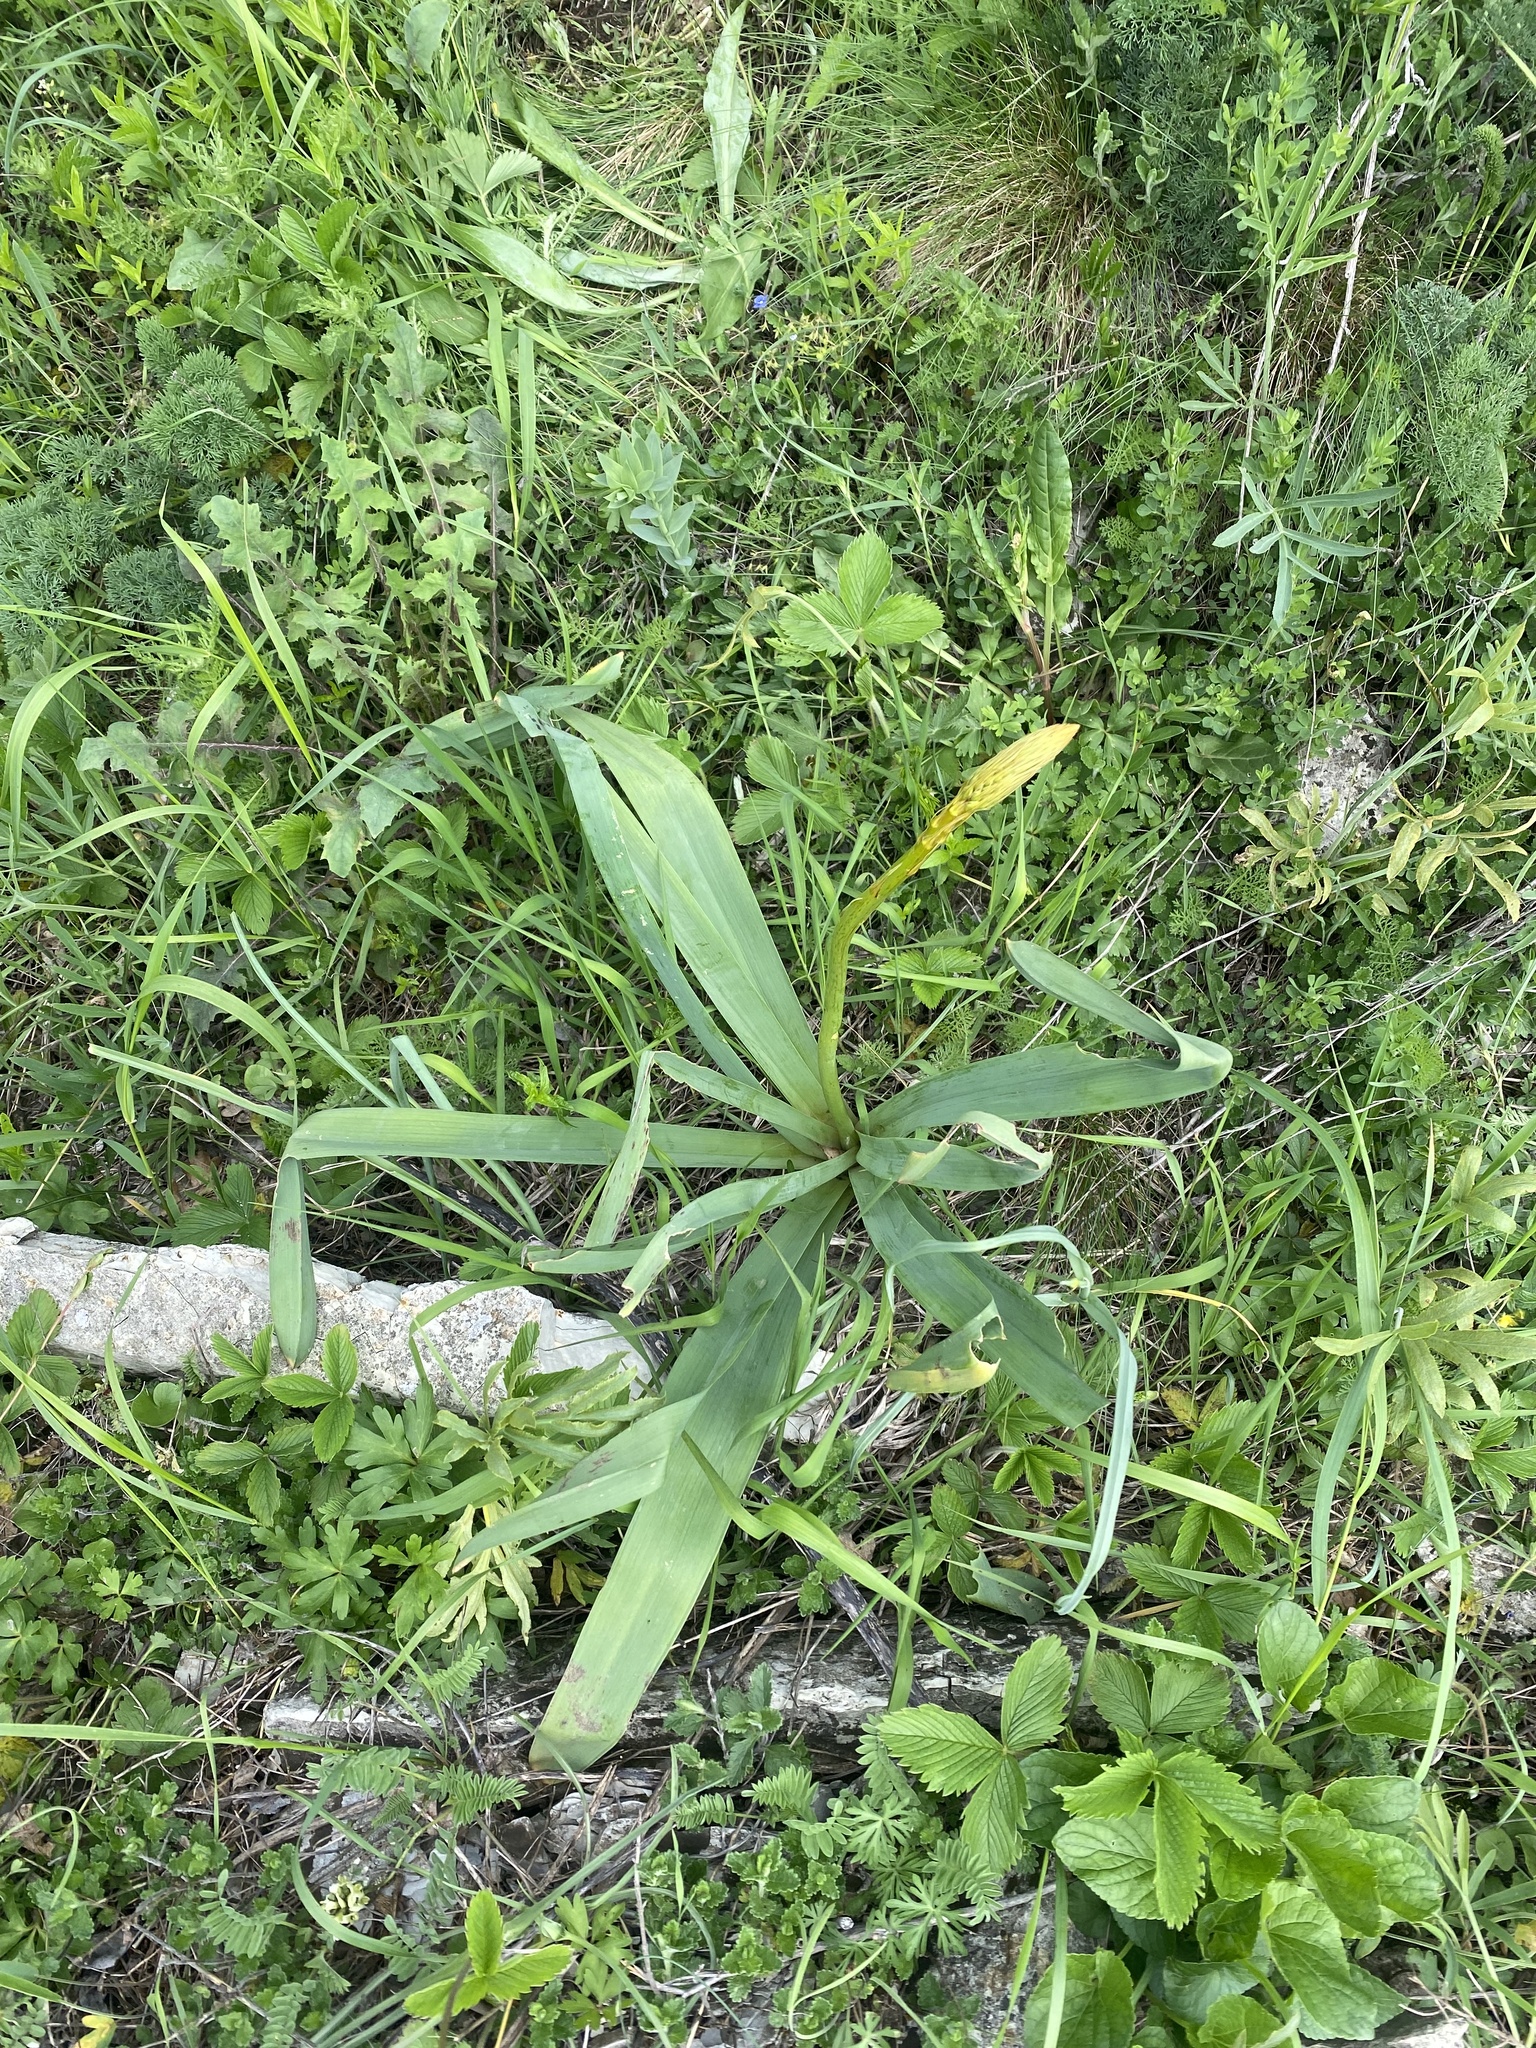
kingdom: Plantae
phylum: Tracheophyta
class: Liliopsida
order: Asparagales
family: Asphodelaceae
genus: Eremurus
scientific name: Eremurus spectabilis
